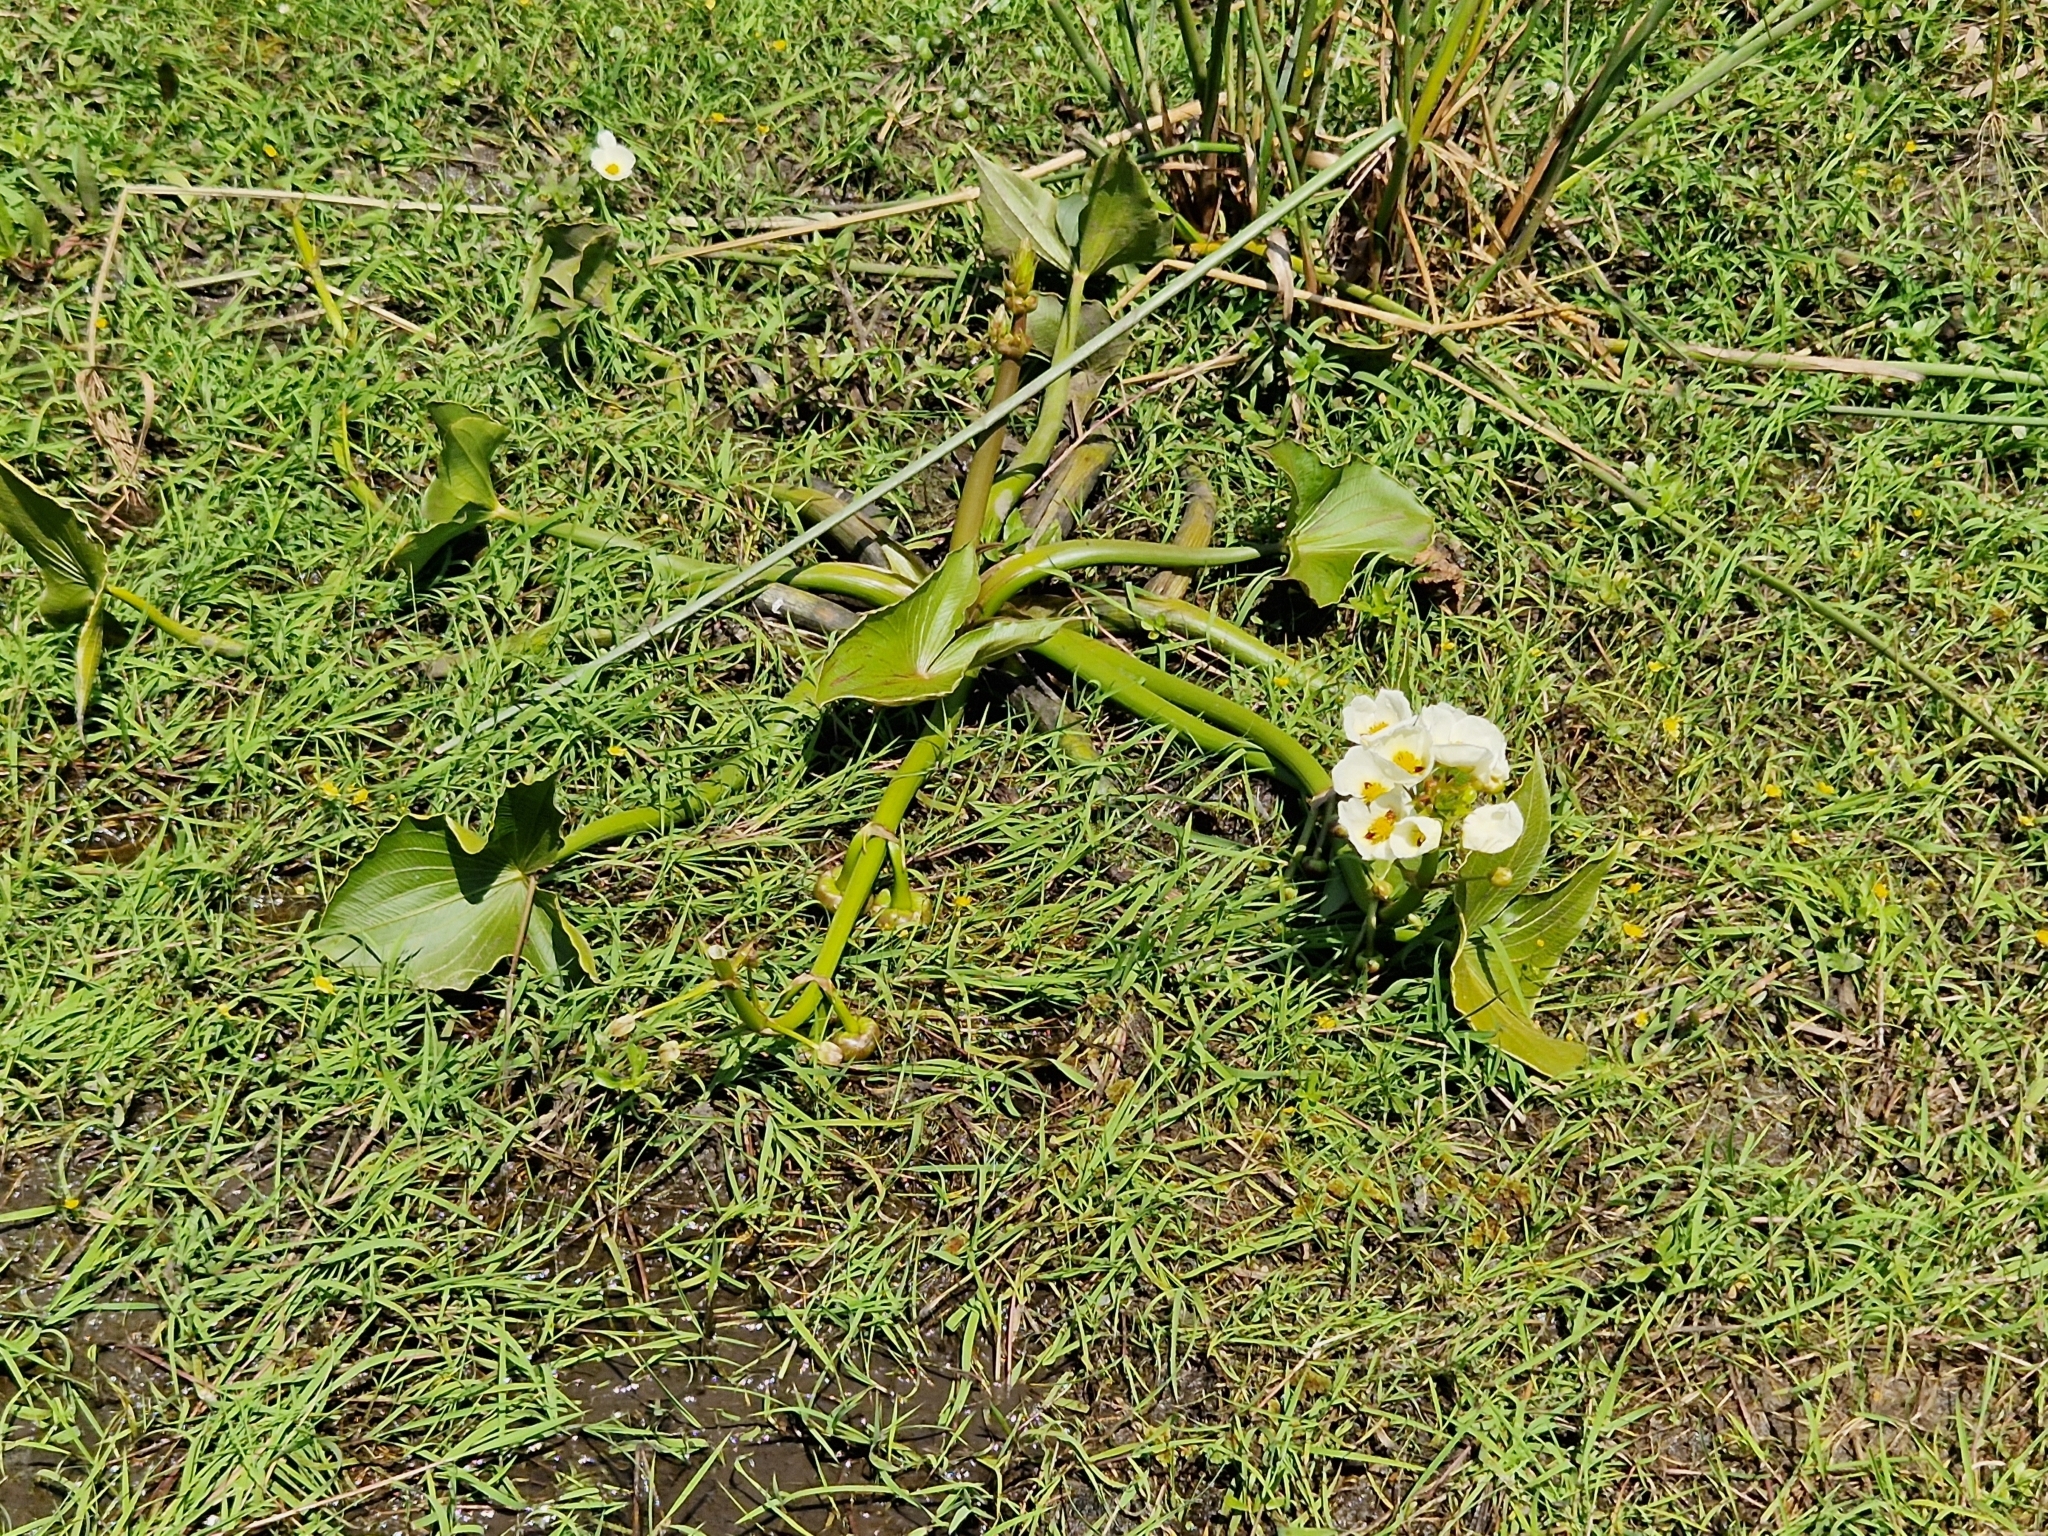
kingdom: Plantae
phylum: Tracheophyta
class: Liliopsida
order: Alismatales
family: Alismataceae
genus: Sagittaria
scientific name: Sagittaria montevidensis
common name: Giant arrowhead
